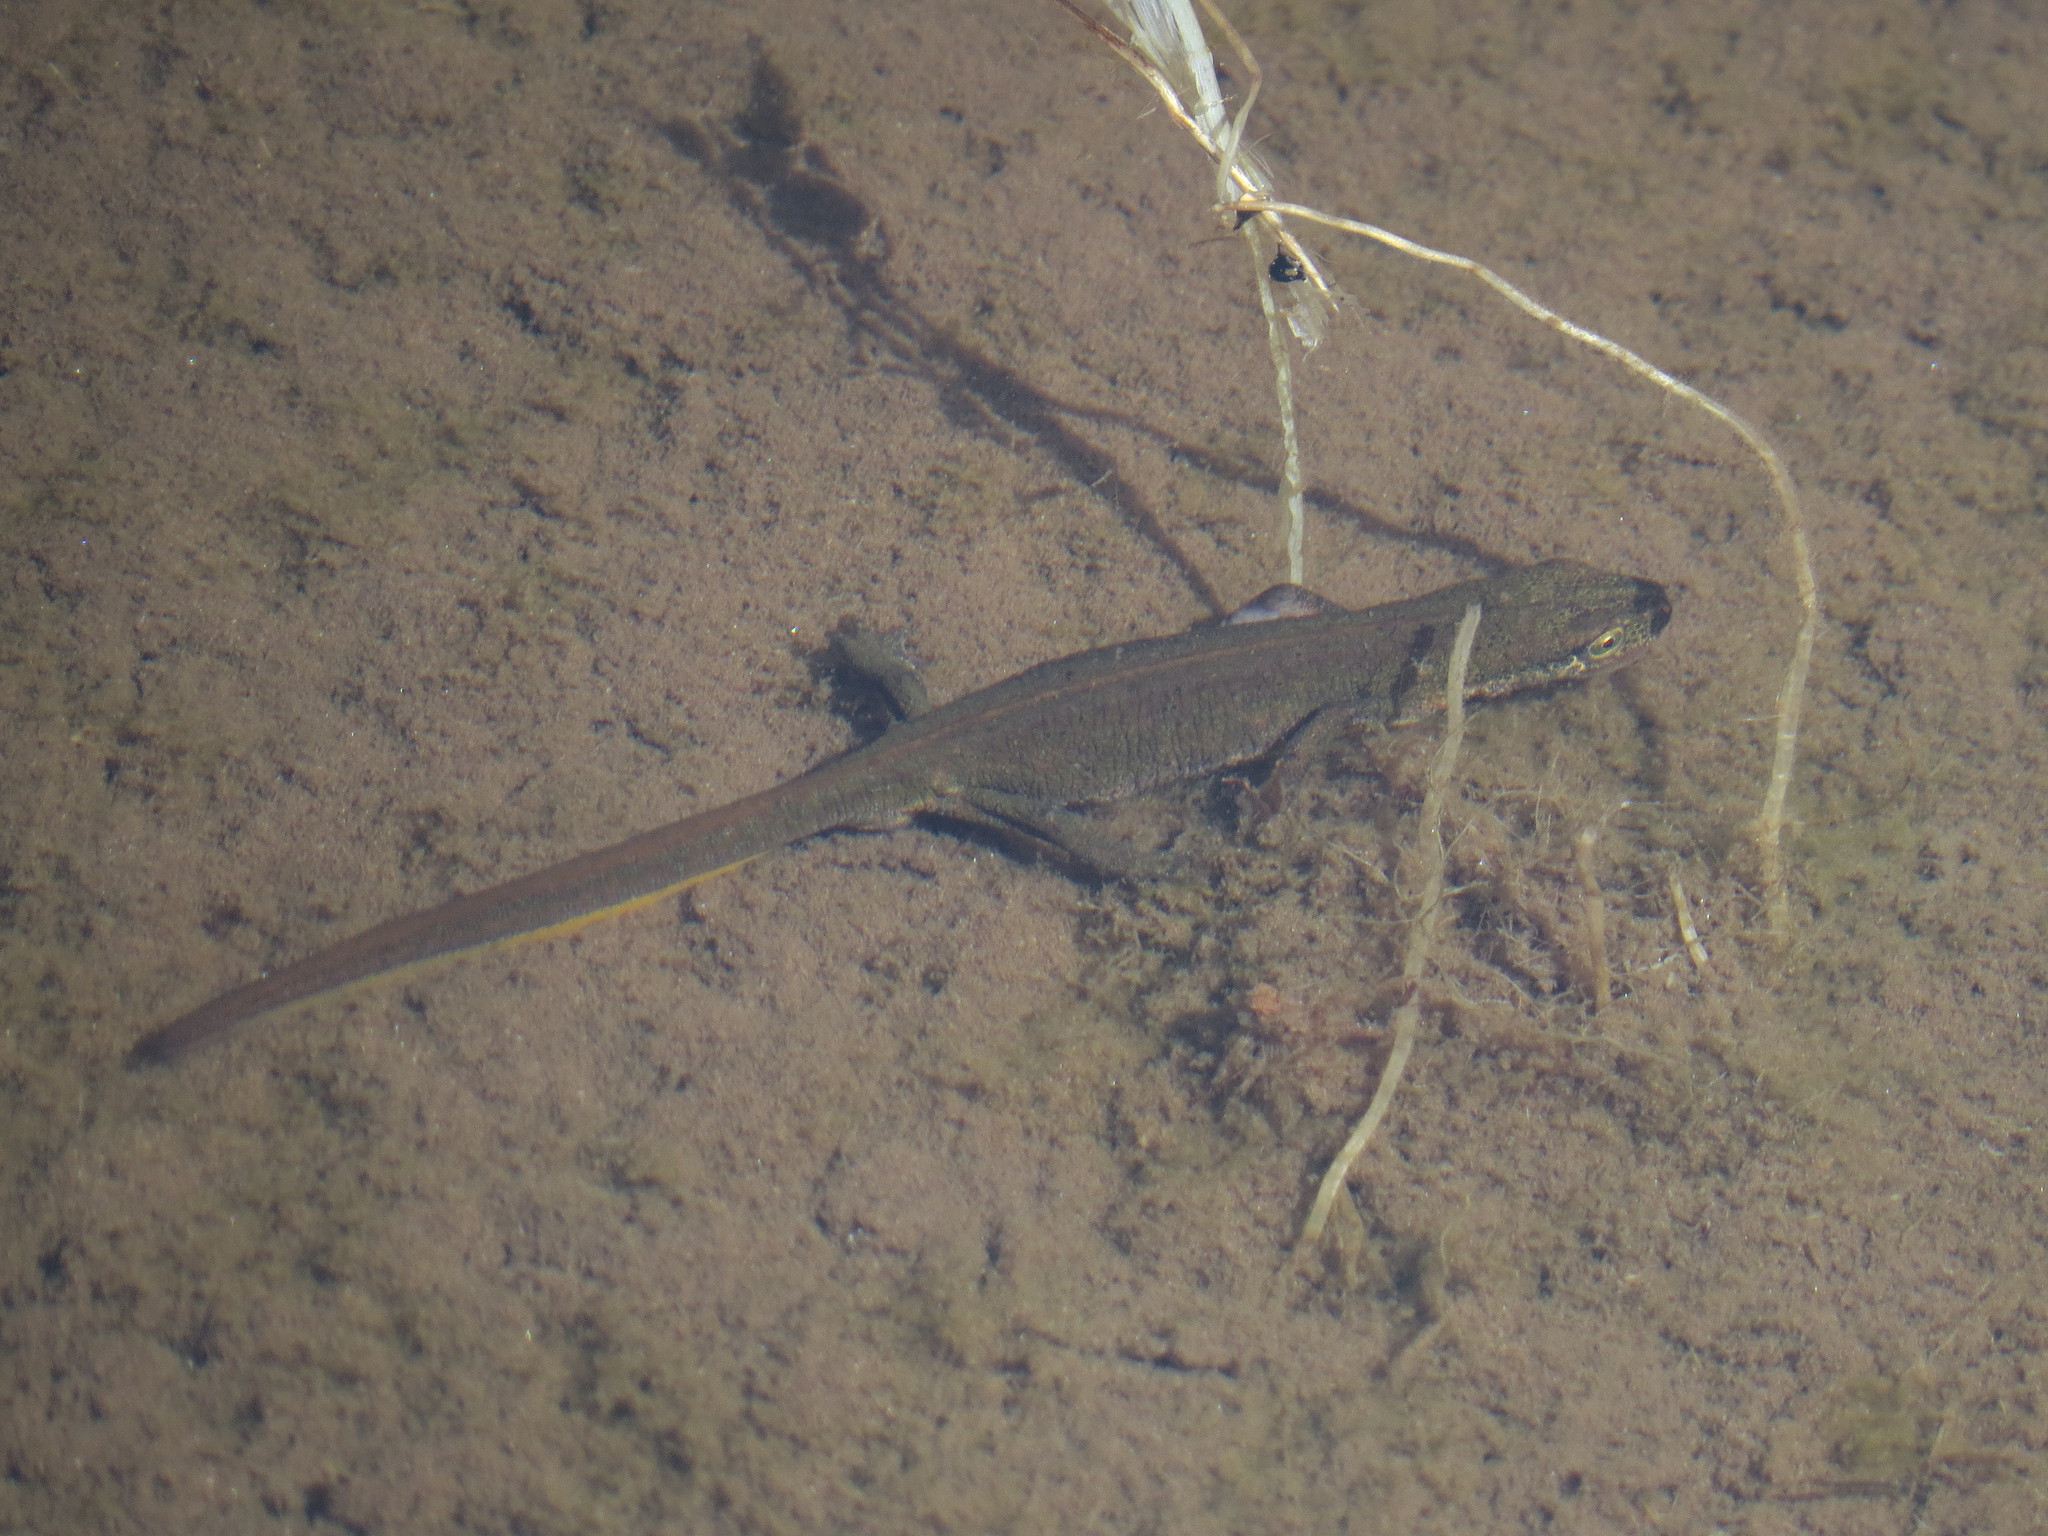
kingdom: Animalia
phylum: Chordata
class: Amphibia
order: Caudata
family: Salamandridae
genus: Lissotriton
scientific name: Lissotriton helveticus
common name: Palmate newt
